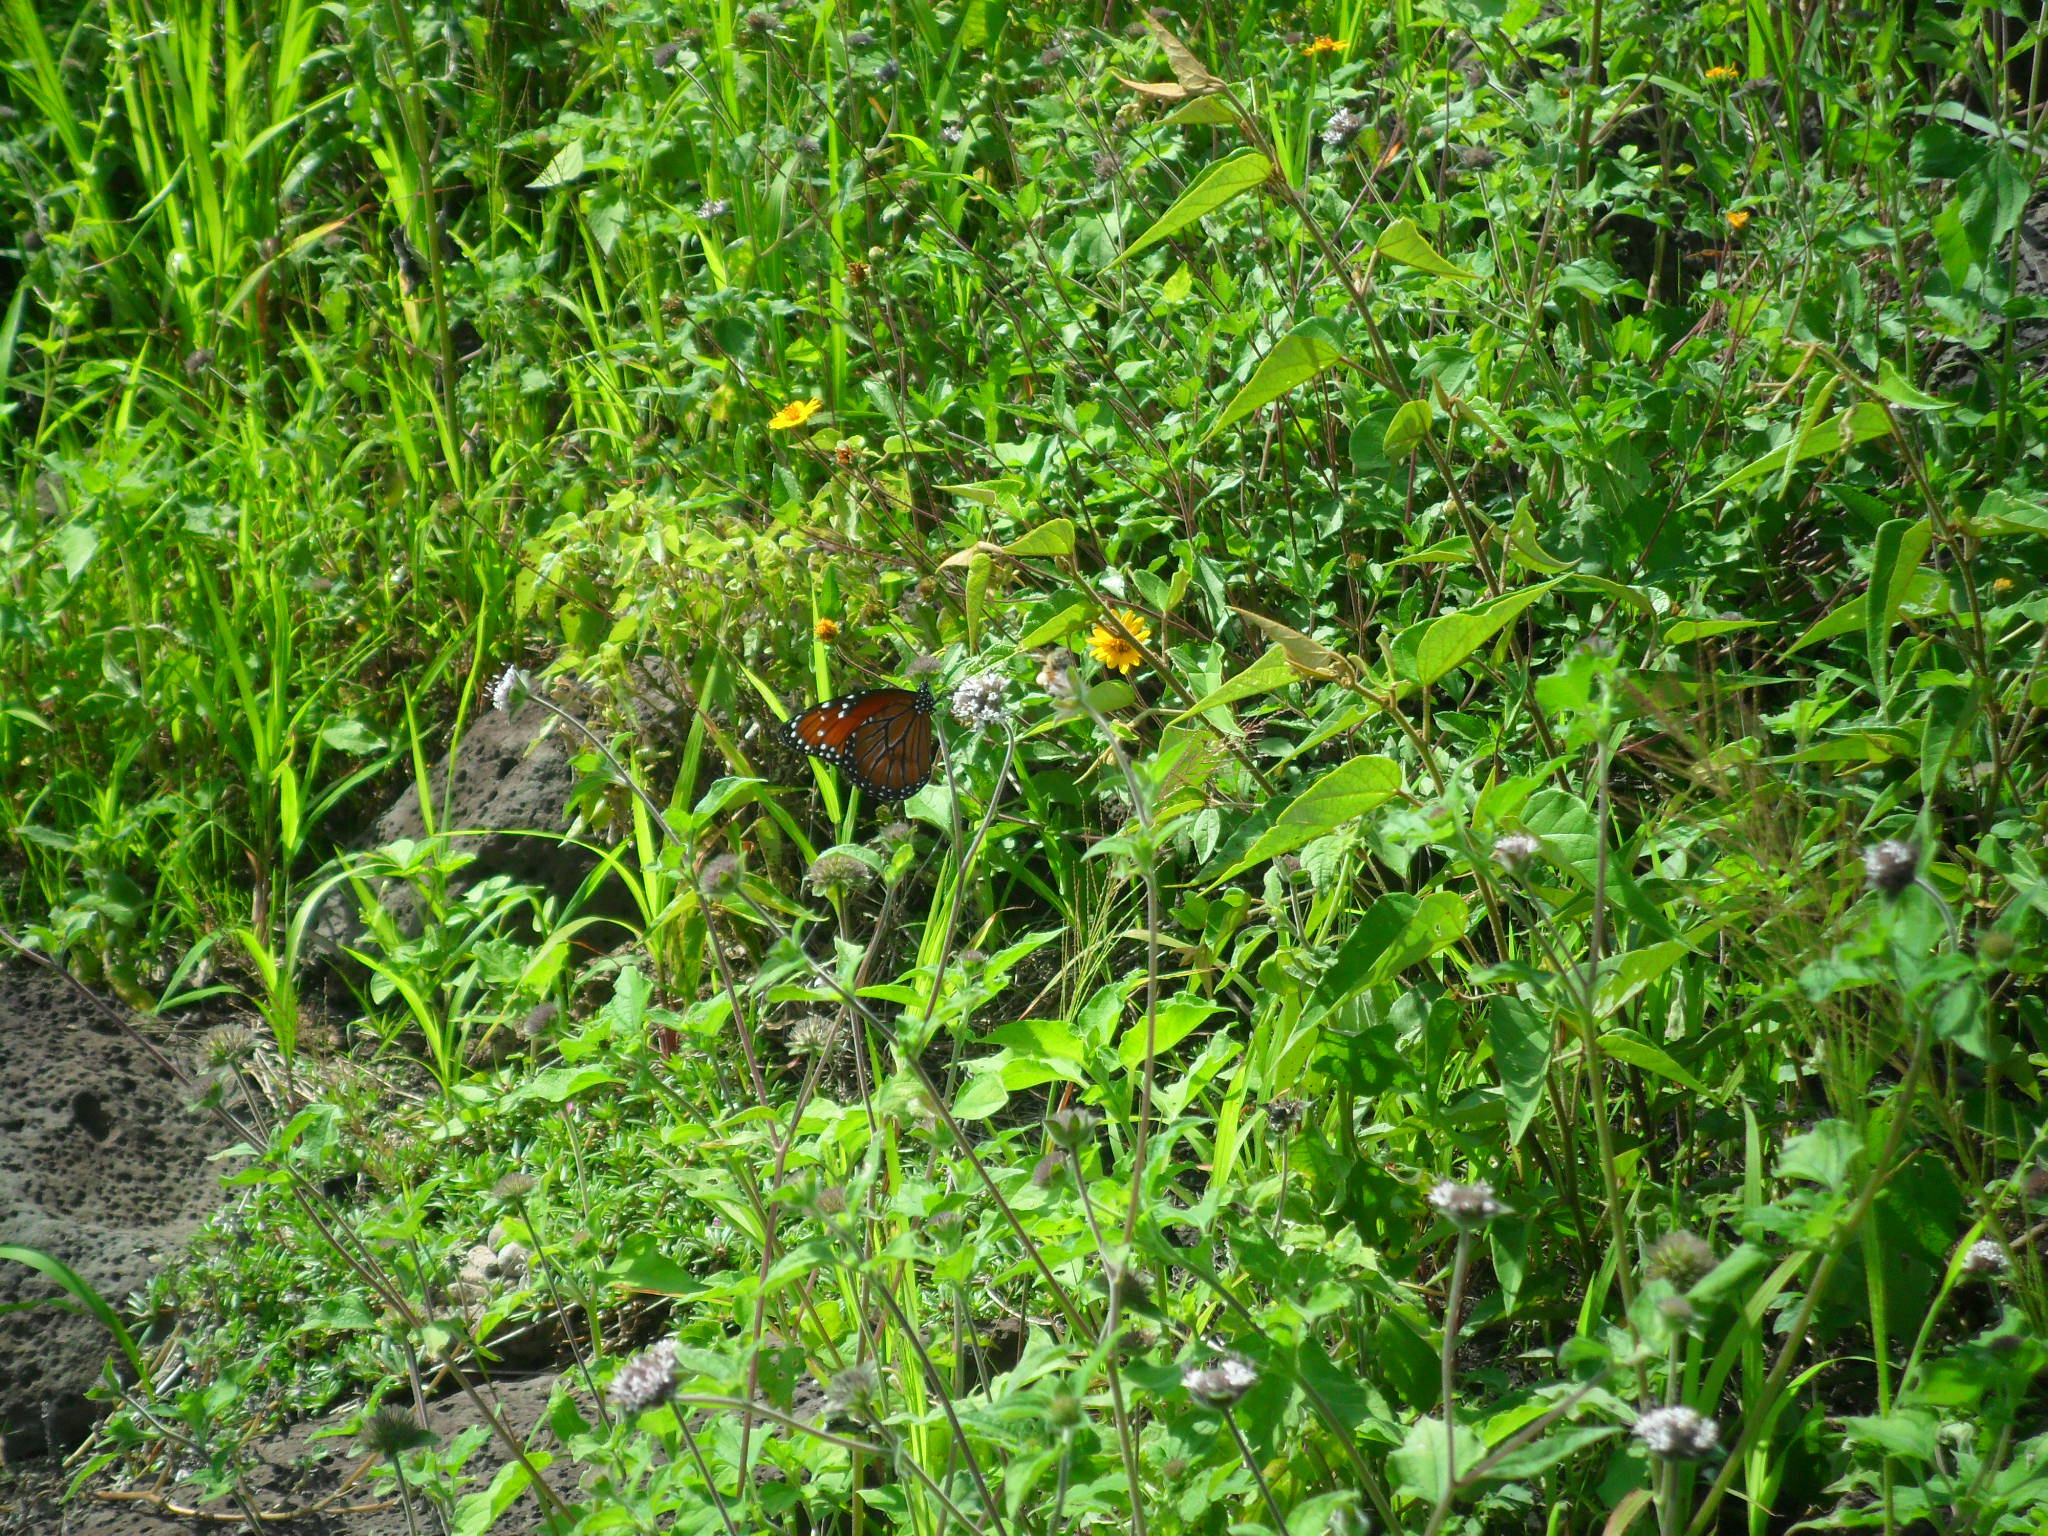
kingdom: Animalia
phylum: Arthropoda
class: Insecta
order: Lepidoptera
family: Nymphalidae
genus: Danaus
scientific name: Danaus eresimus
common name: Soldier
